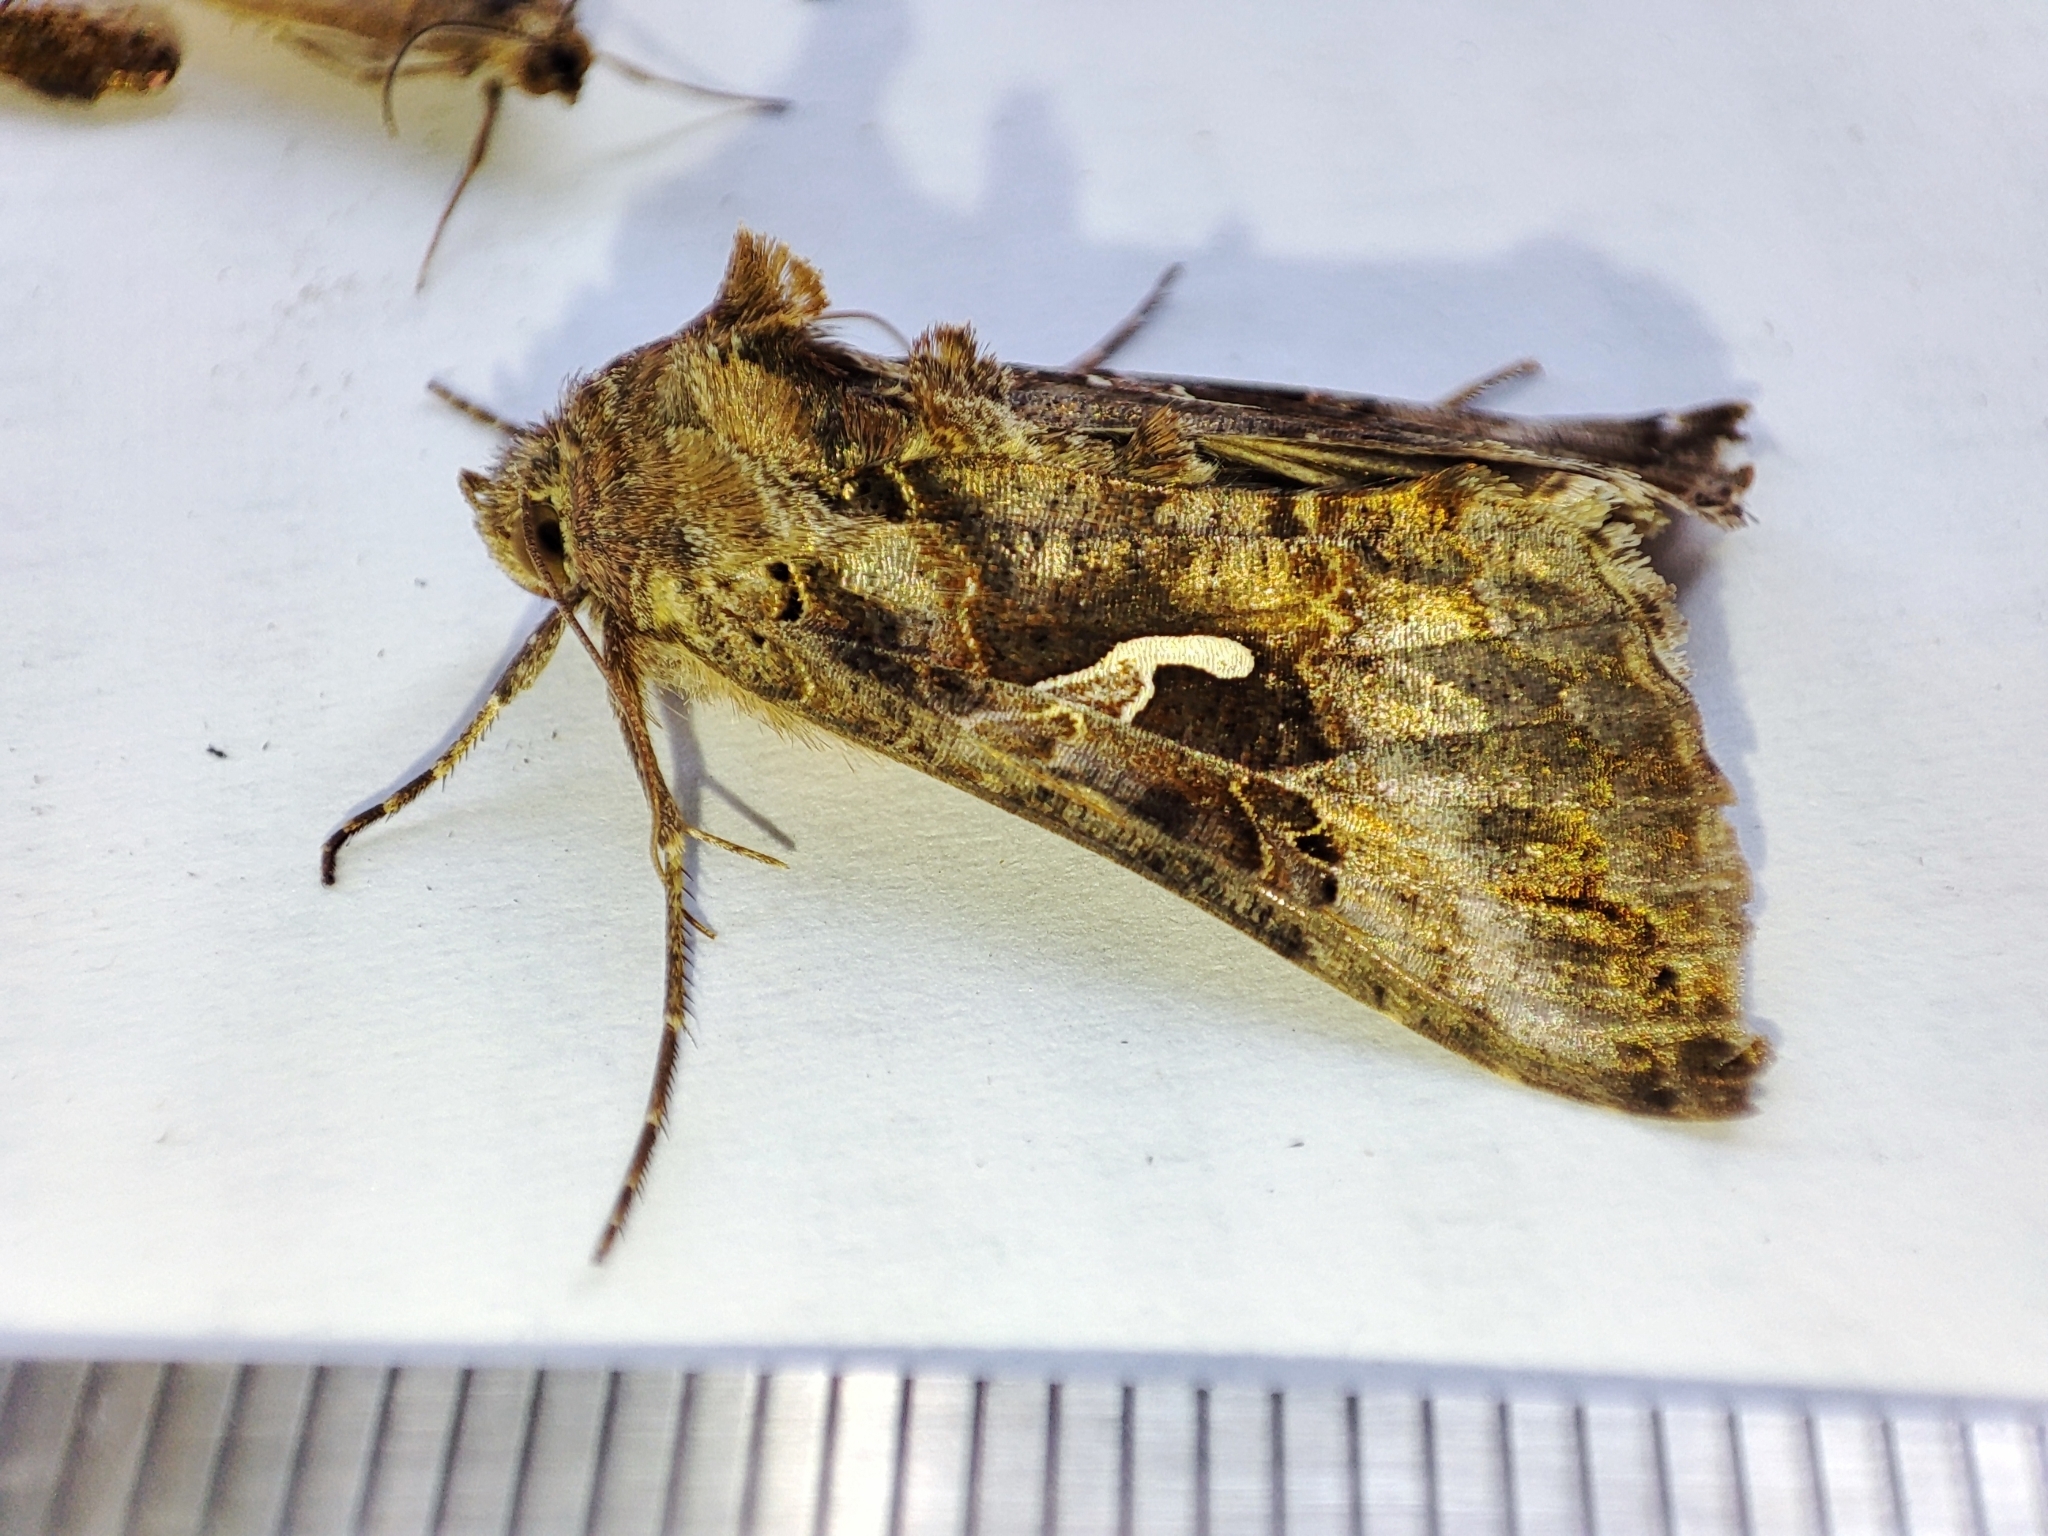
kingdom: Animalia
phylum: Arthropoda
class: Insecta
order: Lepidoptera
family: Noctuidae
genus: Autographa
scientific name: Autographa gamma
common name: Silver y
